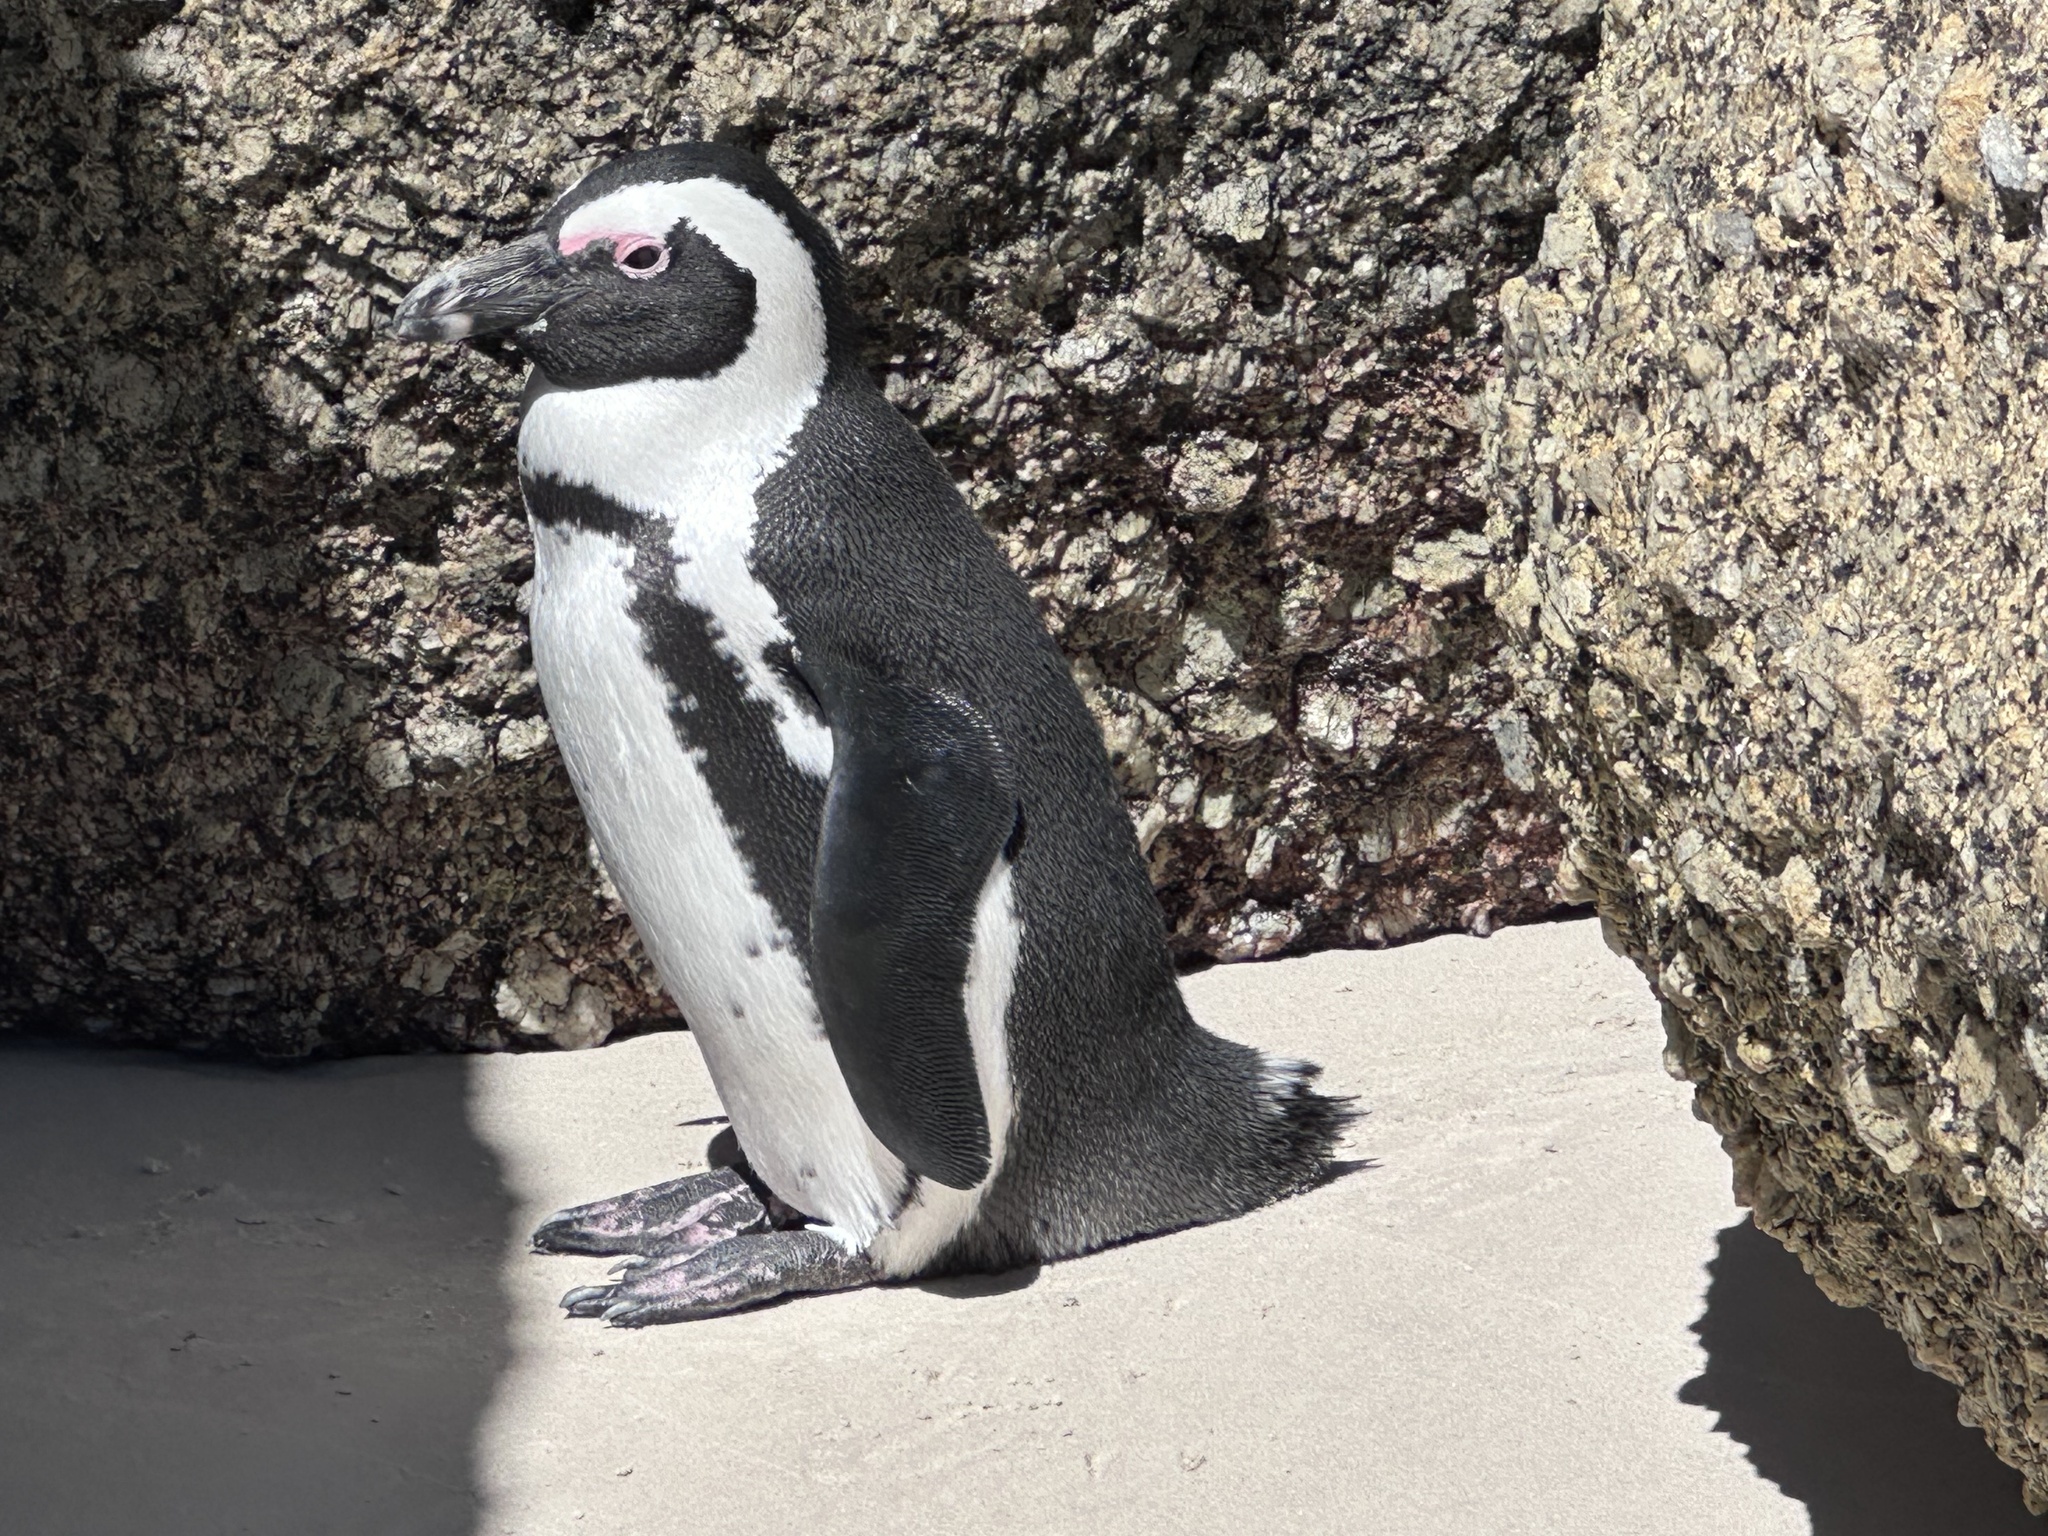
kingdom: Animalia
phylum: Chordata
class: Aves
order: Sphenisciformes
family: Spheniscidae
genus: Spheniscus
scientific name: Spheniscus demersus
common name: African penguin
